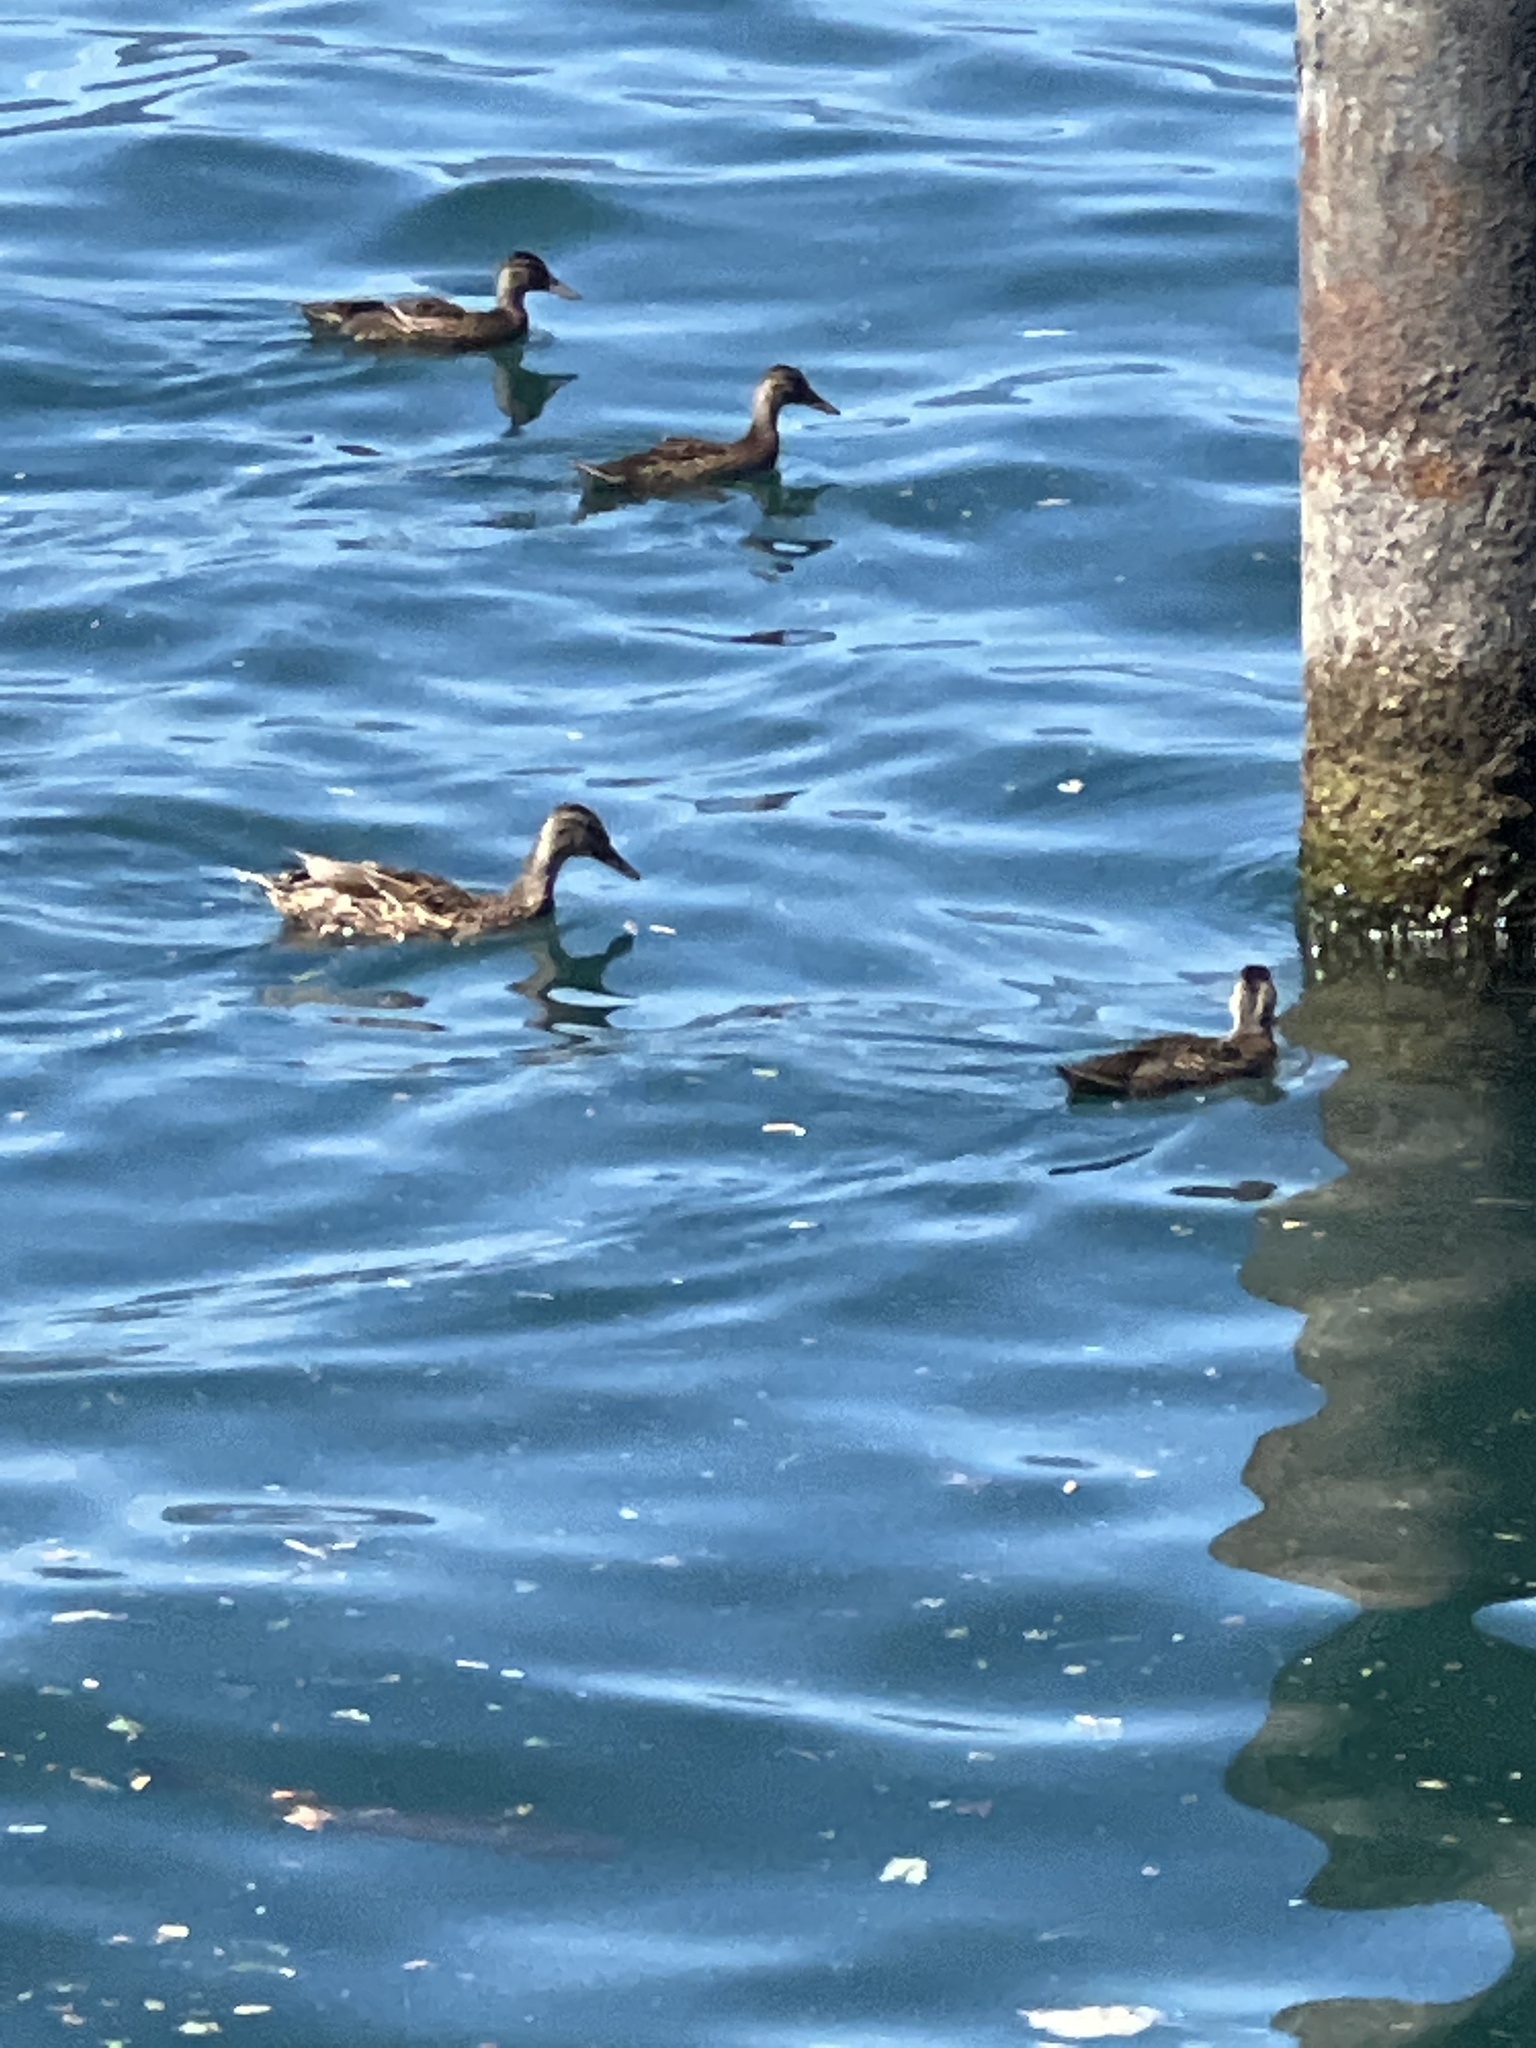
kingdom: Animalia
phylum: Chordata
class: Aves
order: Anseriformes
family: Anatidae
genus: Anas
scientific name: Anas platyrhynchos
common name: Mallard
